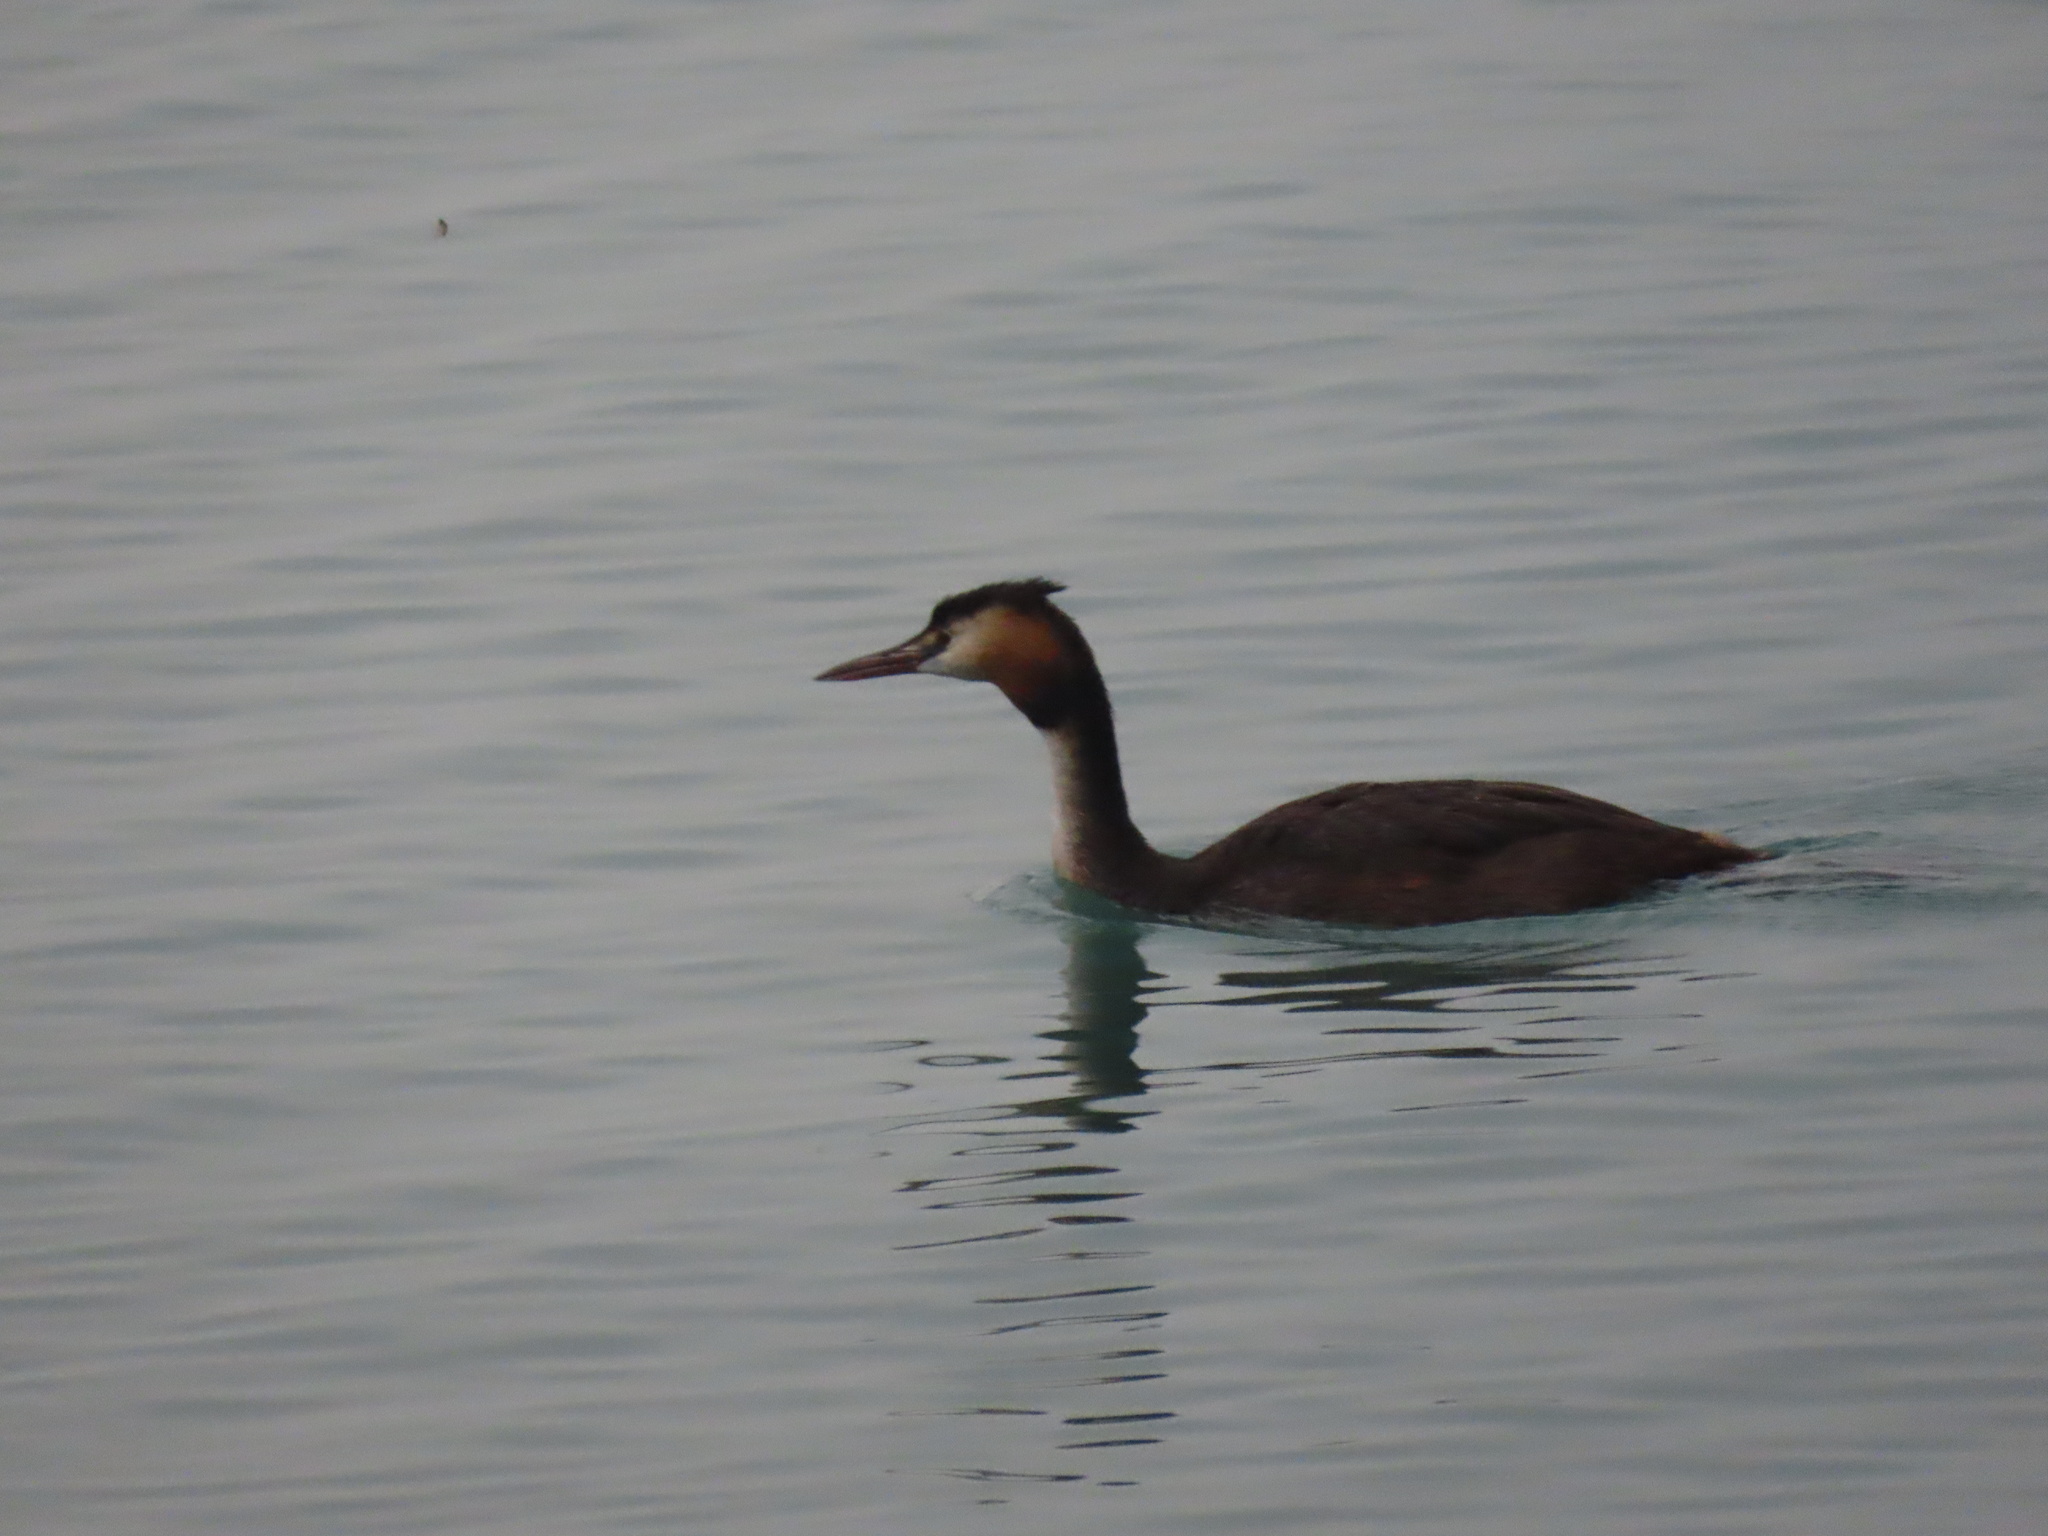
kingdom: Animalia
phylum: Chordata
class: Aves
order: Podicipediformes
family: Podicipedidae
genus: Podiceps
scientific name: Podiceps cristatus
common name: Great crested grebe
